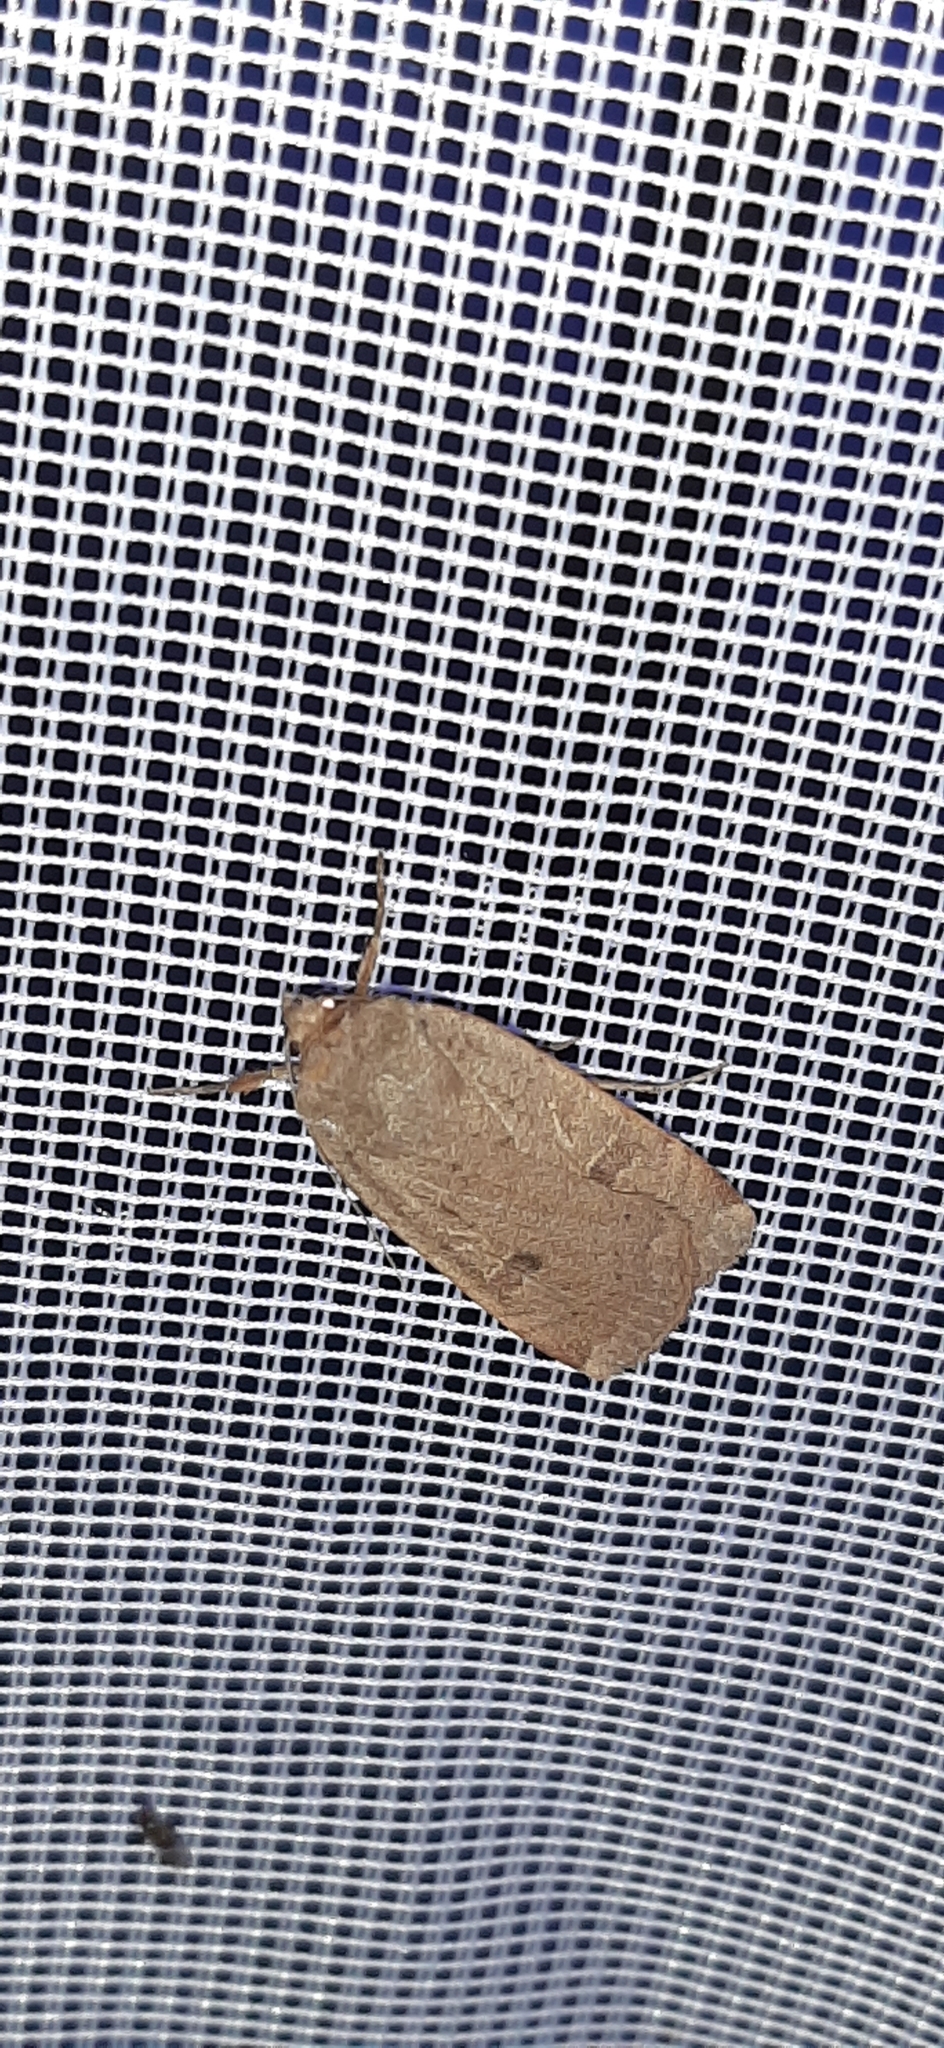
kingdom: Animalia
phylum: Arthropoda
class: Insecta
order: Lepidoptera
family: Noctuidae
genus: Noctua
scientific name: Noctua comes
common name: Lesser yellow underwing
